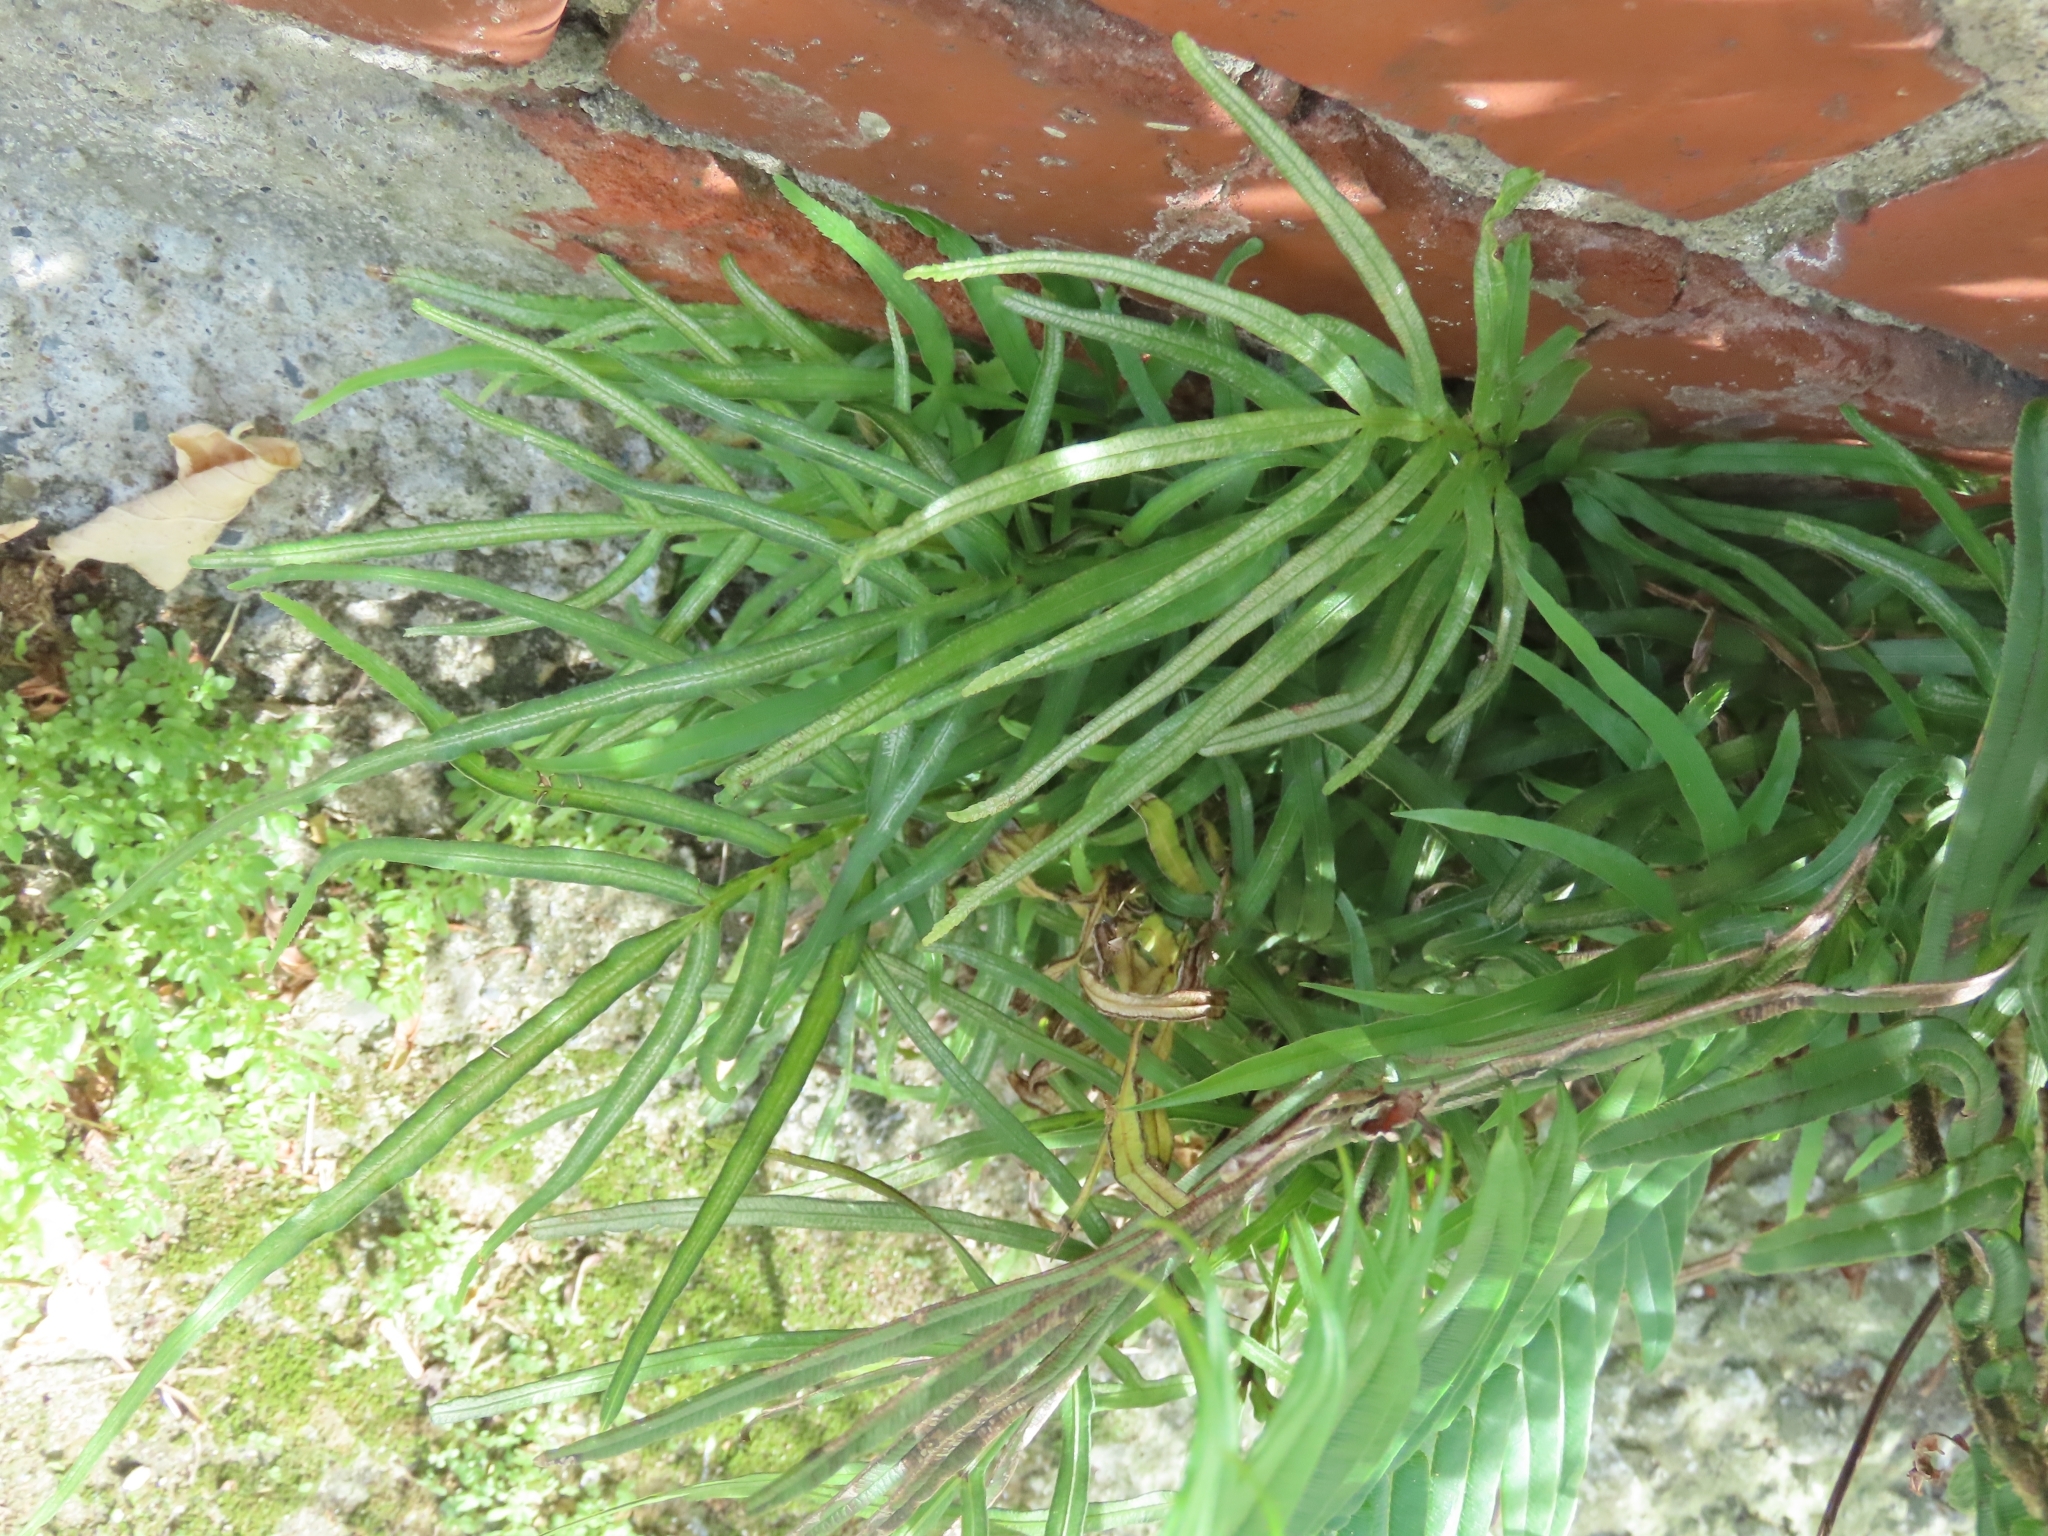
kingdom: Plantae
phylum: Tracheophyta
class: Polypodiopsida
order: Polypodiales
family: Pteridaceae
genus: Pteris
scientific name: Pteris multifida
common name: Spider brake
